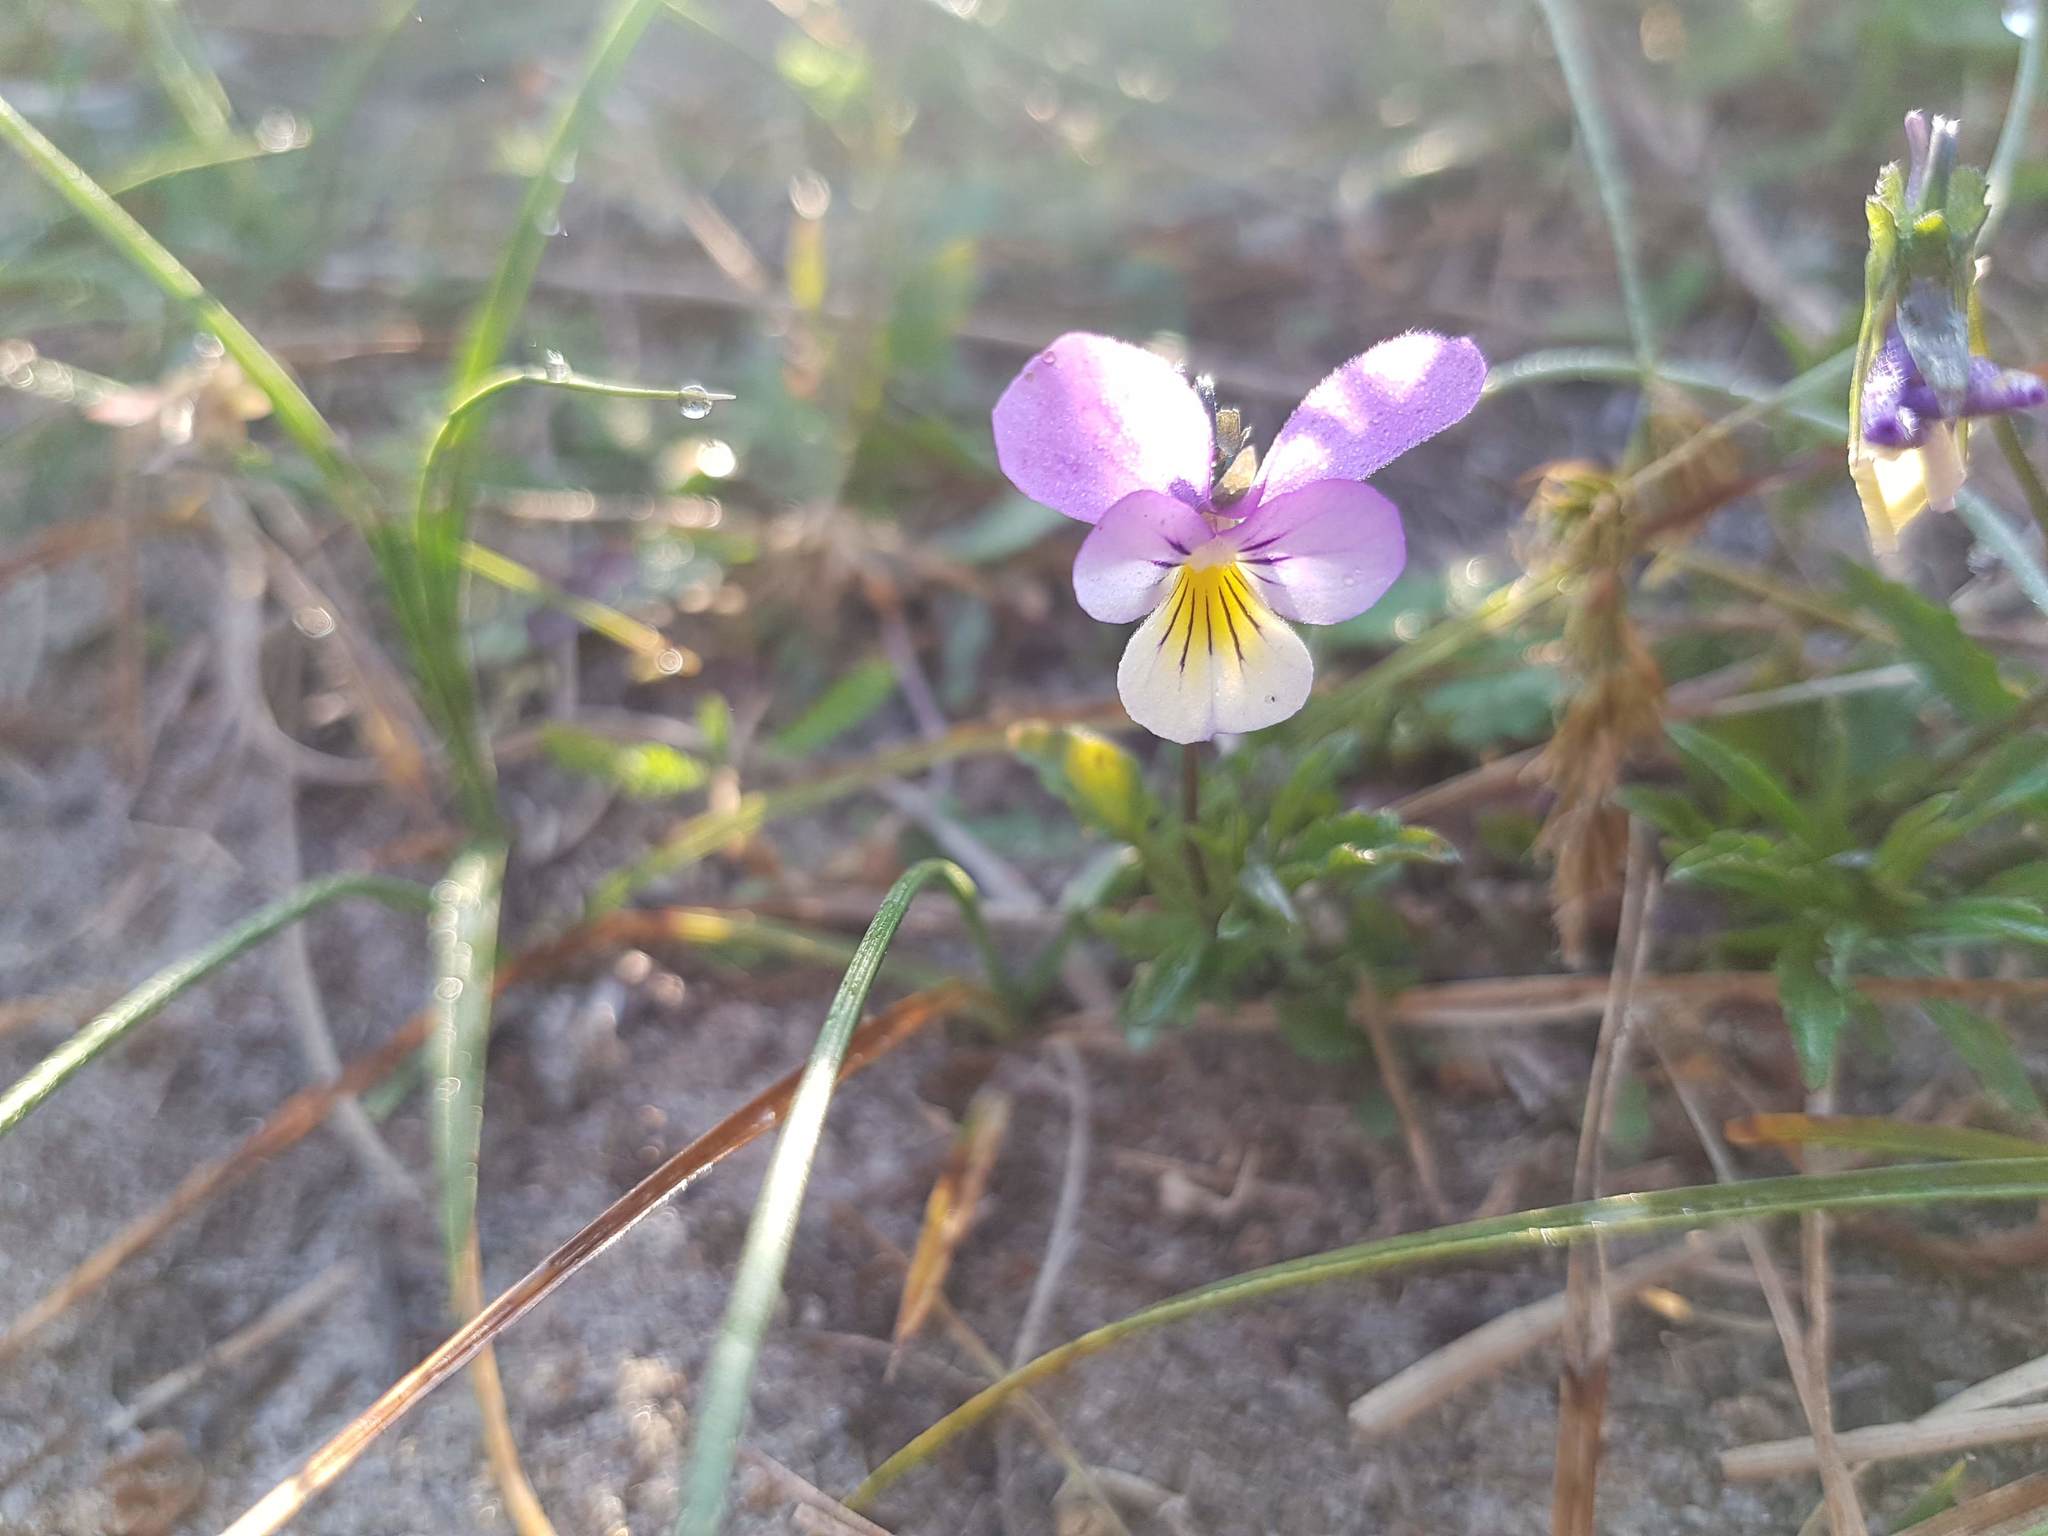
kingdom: Plantae
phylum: Tracheophyta
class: Magnoliopsida
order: Malpighiales
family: Violaceae
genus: Viola
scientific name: Viola tricolor
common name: Pansy
